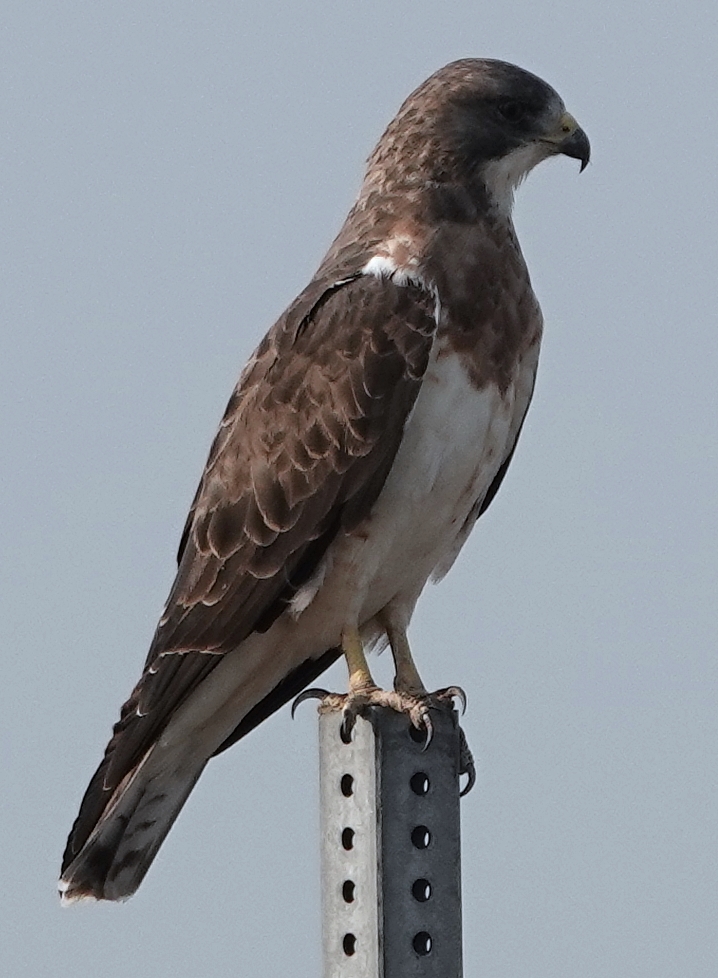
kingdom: Animalia
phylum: Chordata
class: Aves
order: Accipitriformes
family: Accipitridae
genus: Buteo
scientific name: Buteo swainsoni
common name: Swainson's hawk
